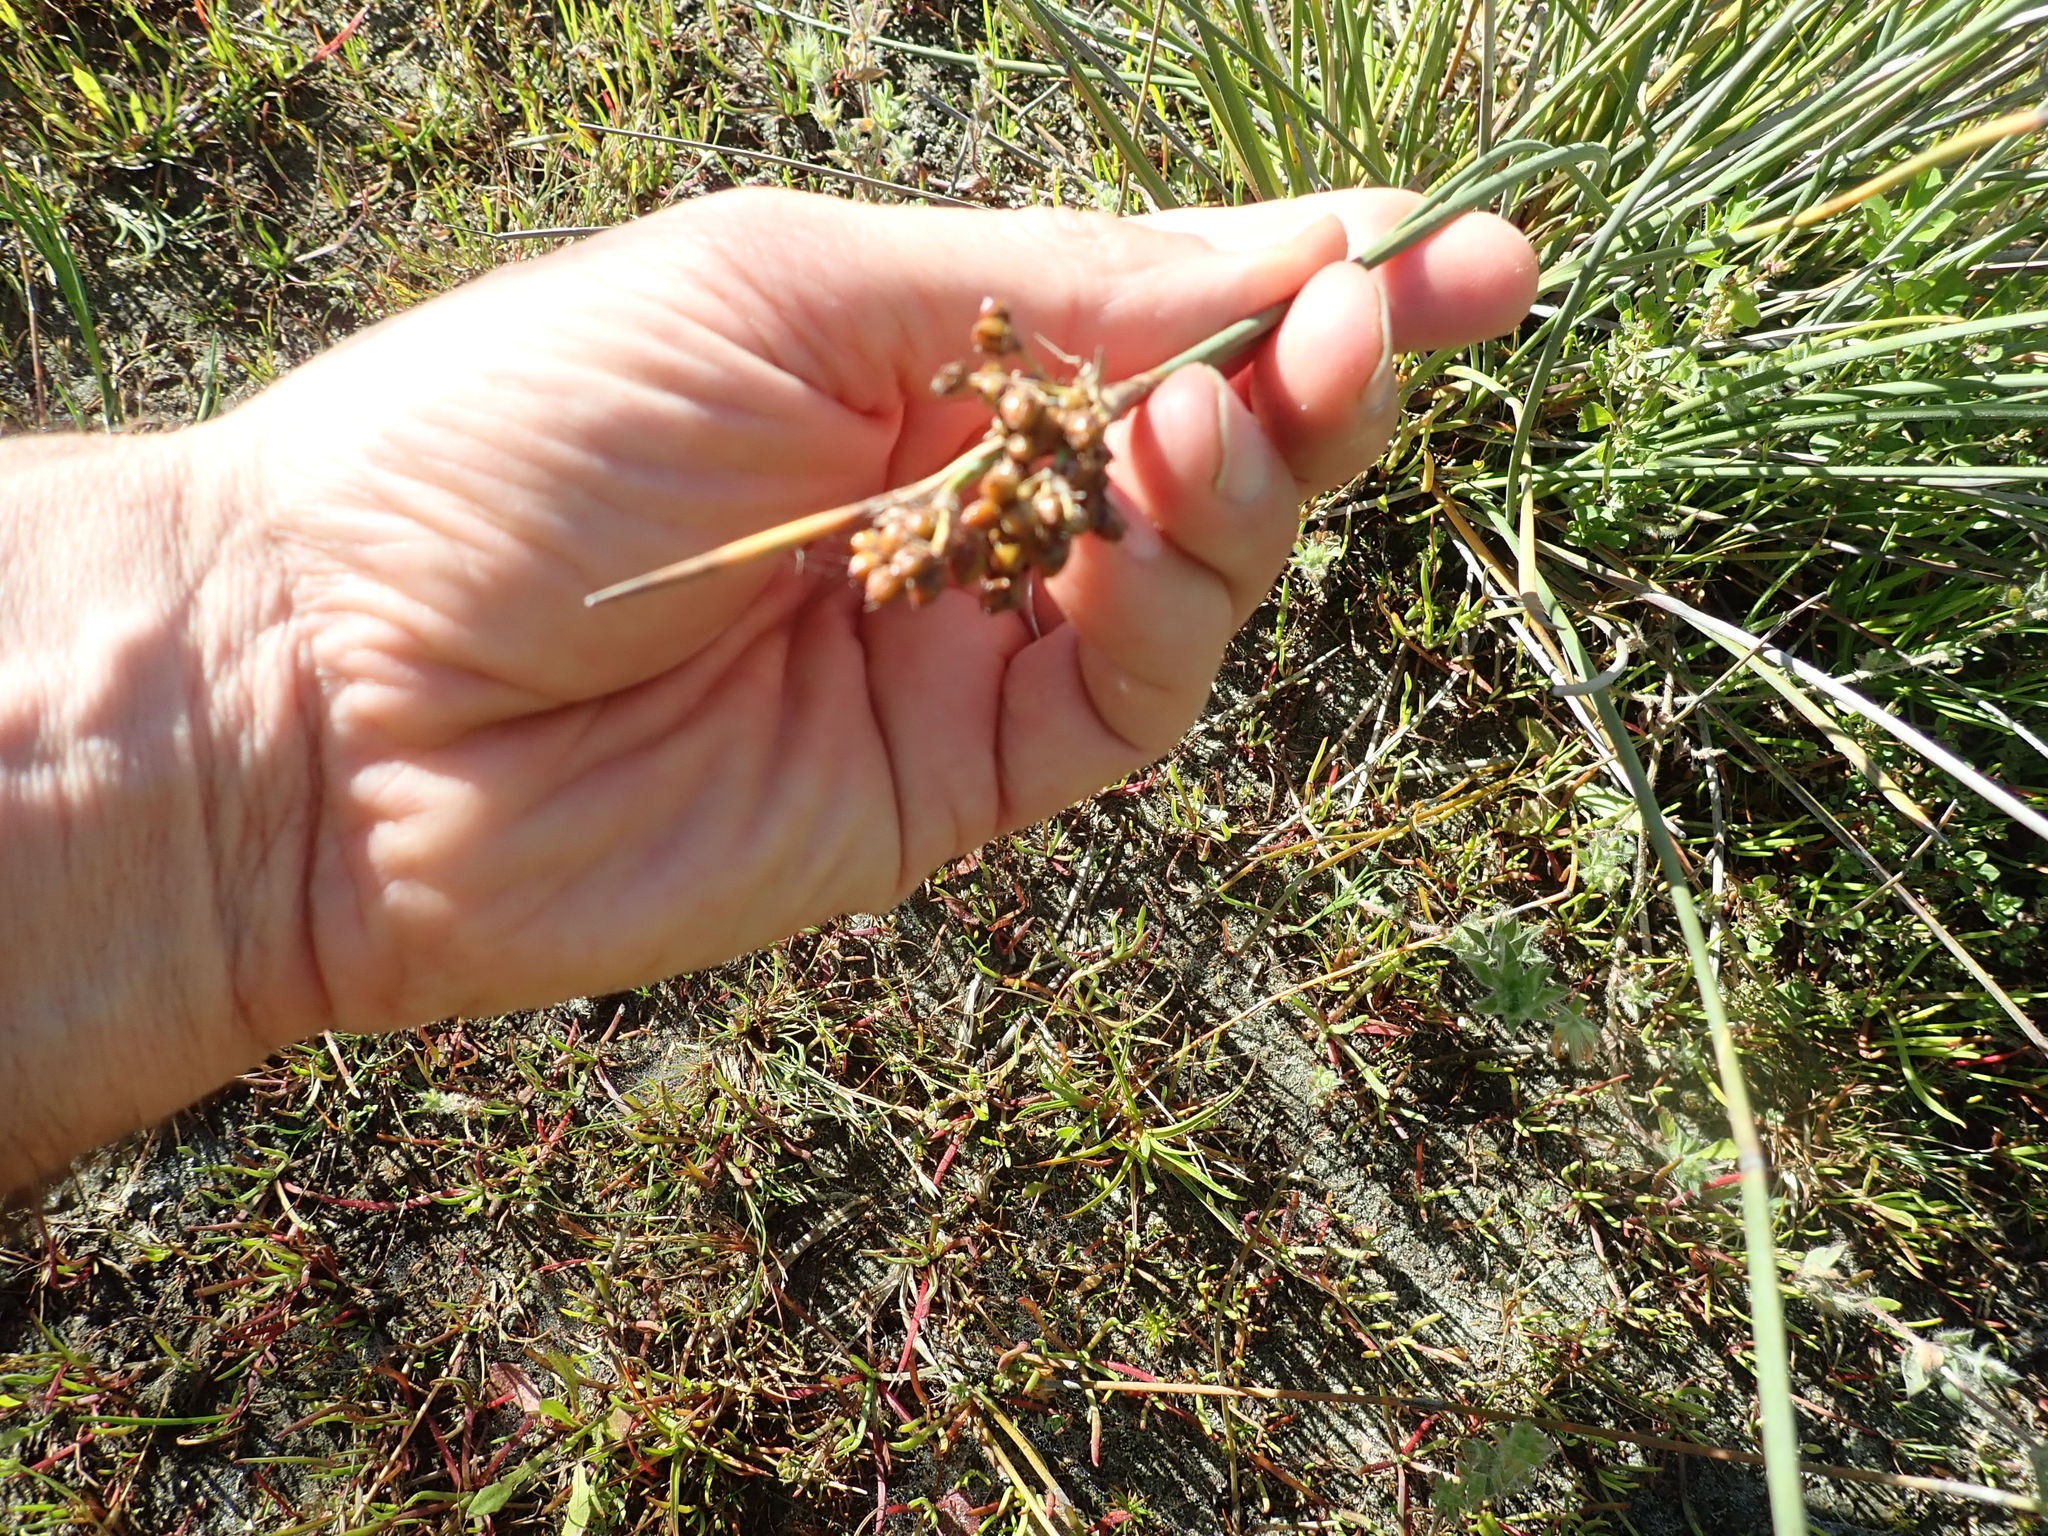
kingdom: Plantae
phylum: Tracheophyta
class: Liliopsida
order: Poales
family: Juncaceae
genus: Juncus
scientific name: Juncus acutus
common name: Sharp rush
